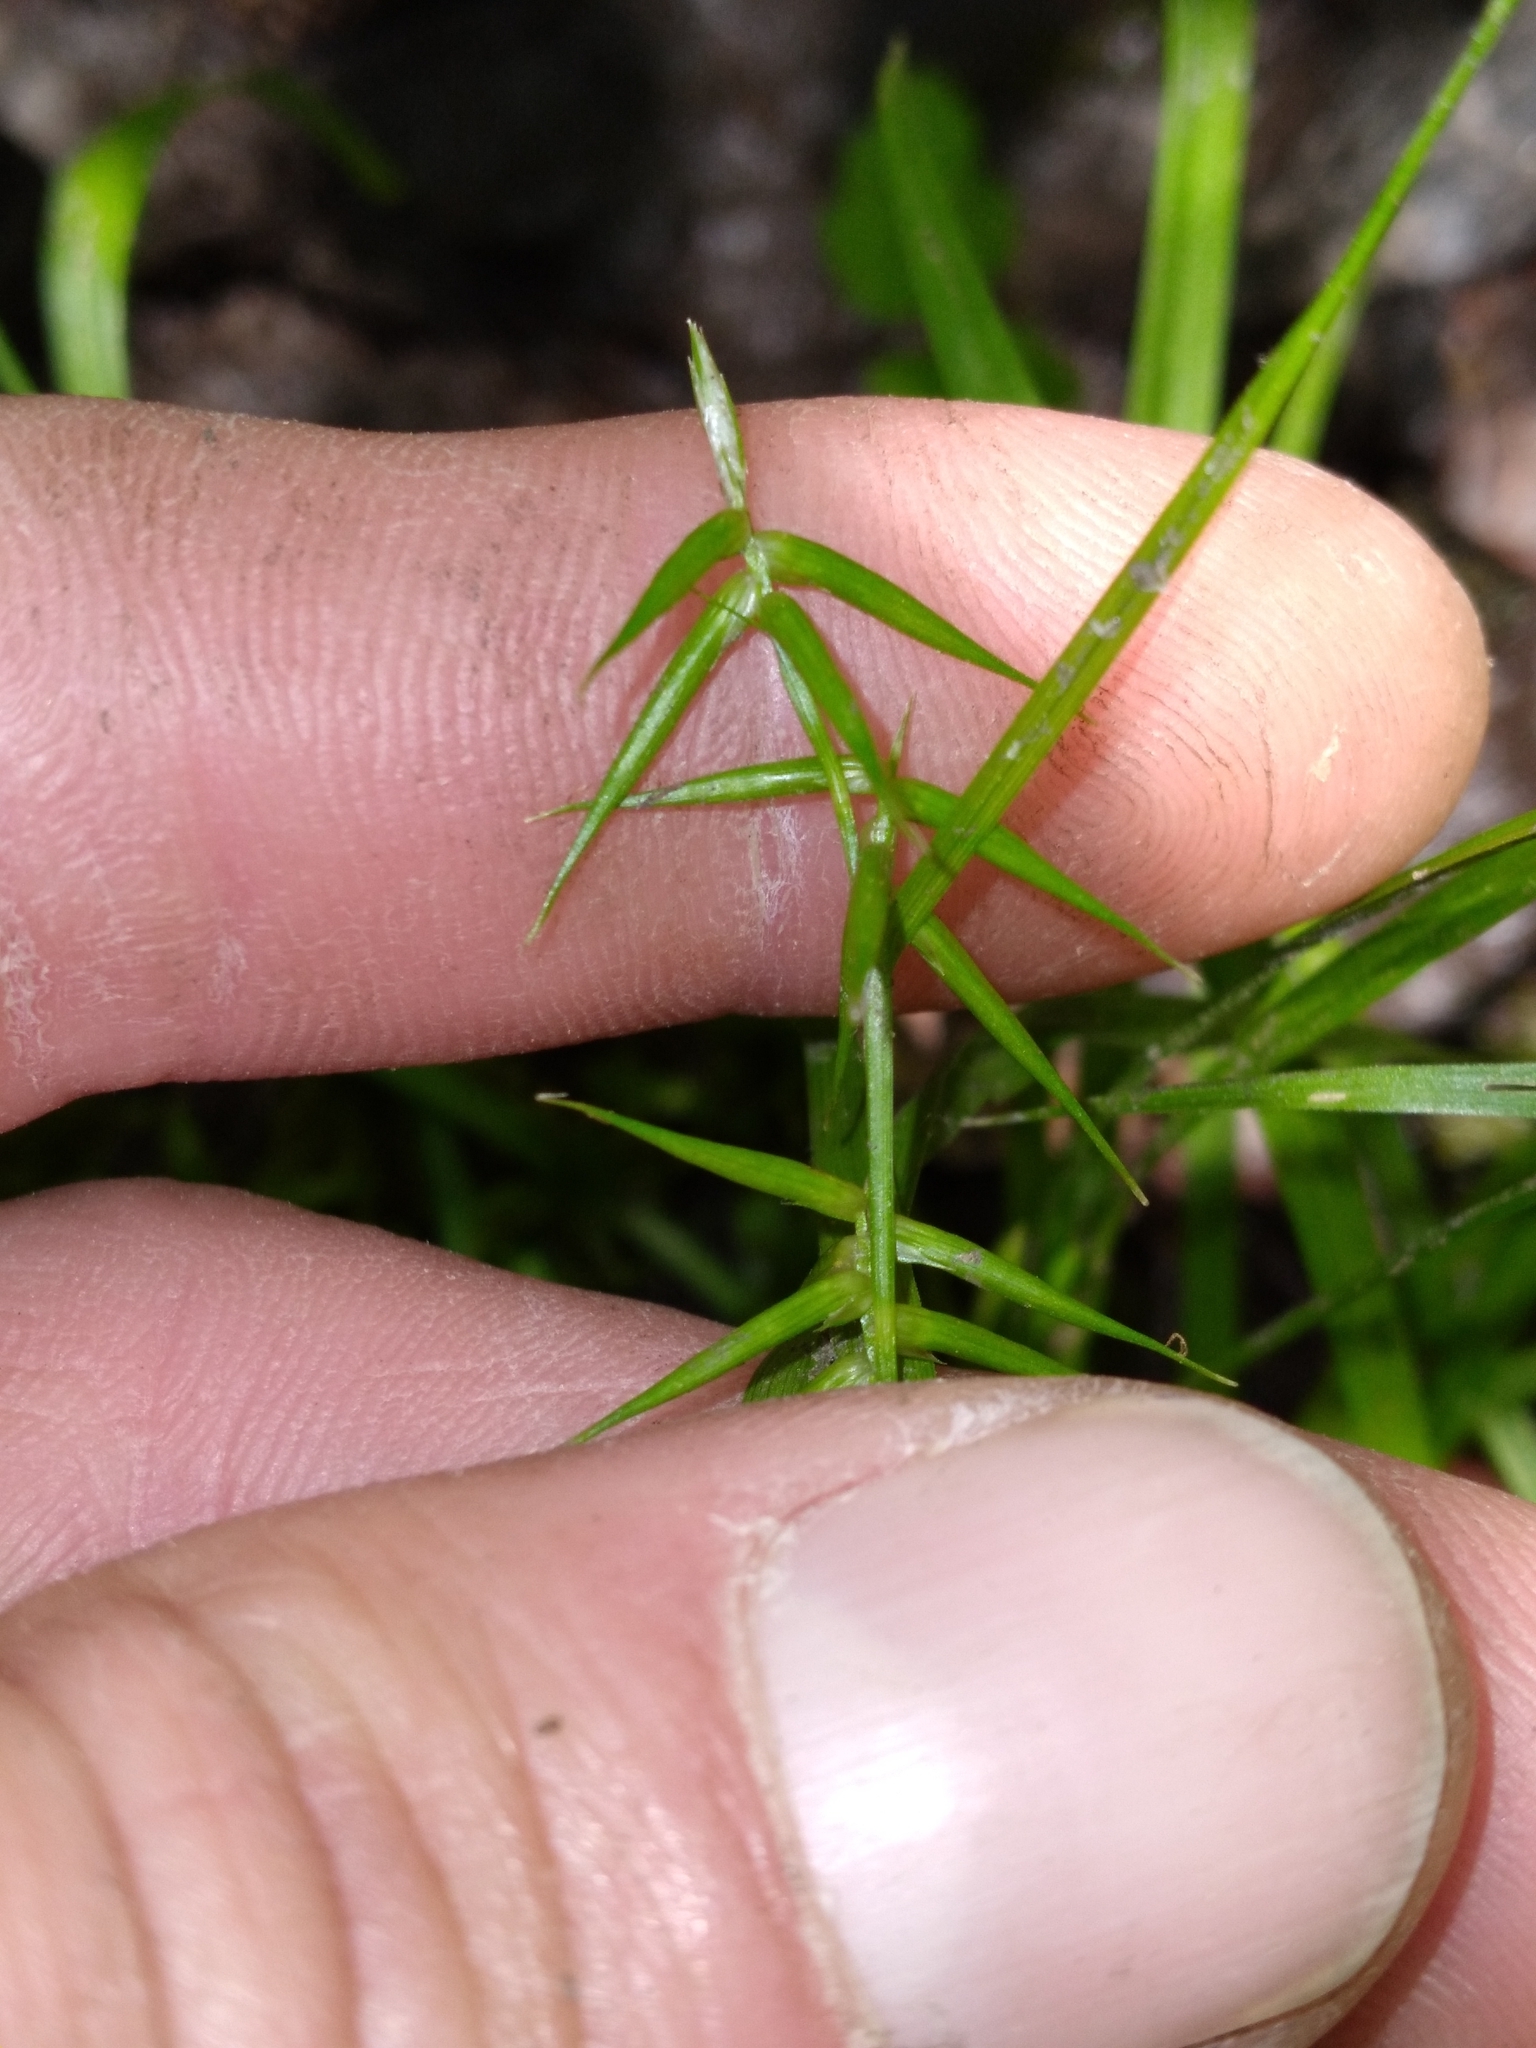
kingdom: Plantae
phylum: Tracheophyta
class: Liliopsida
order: Poales
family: Cyperaceae
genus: Carex
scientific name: Carex collinsii
